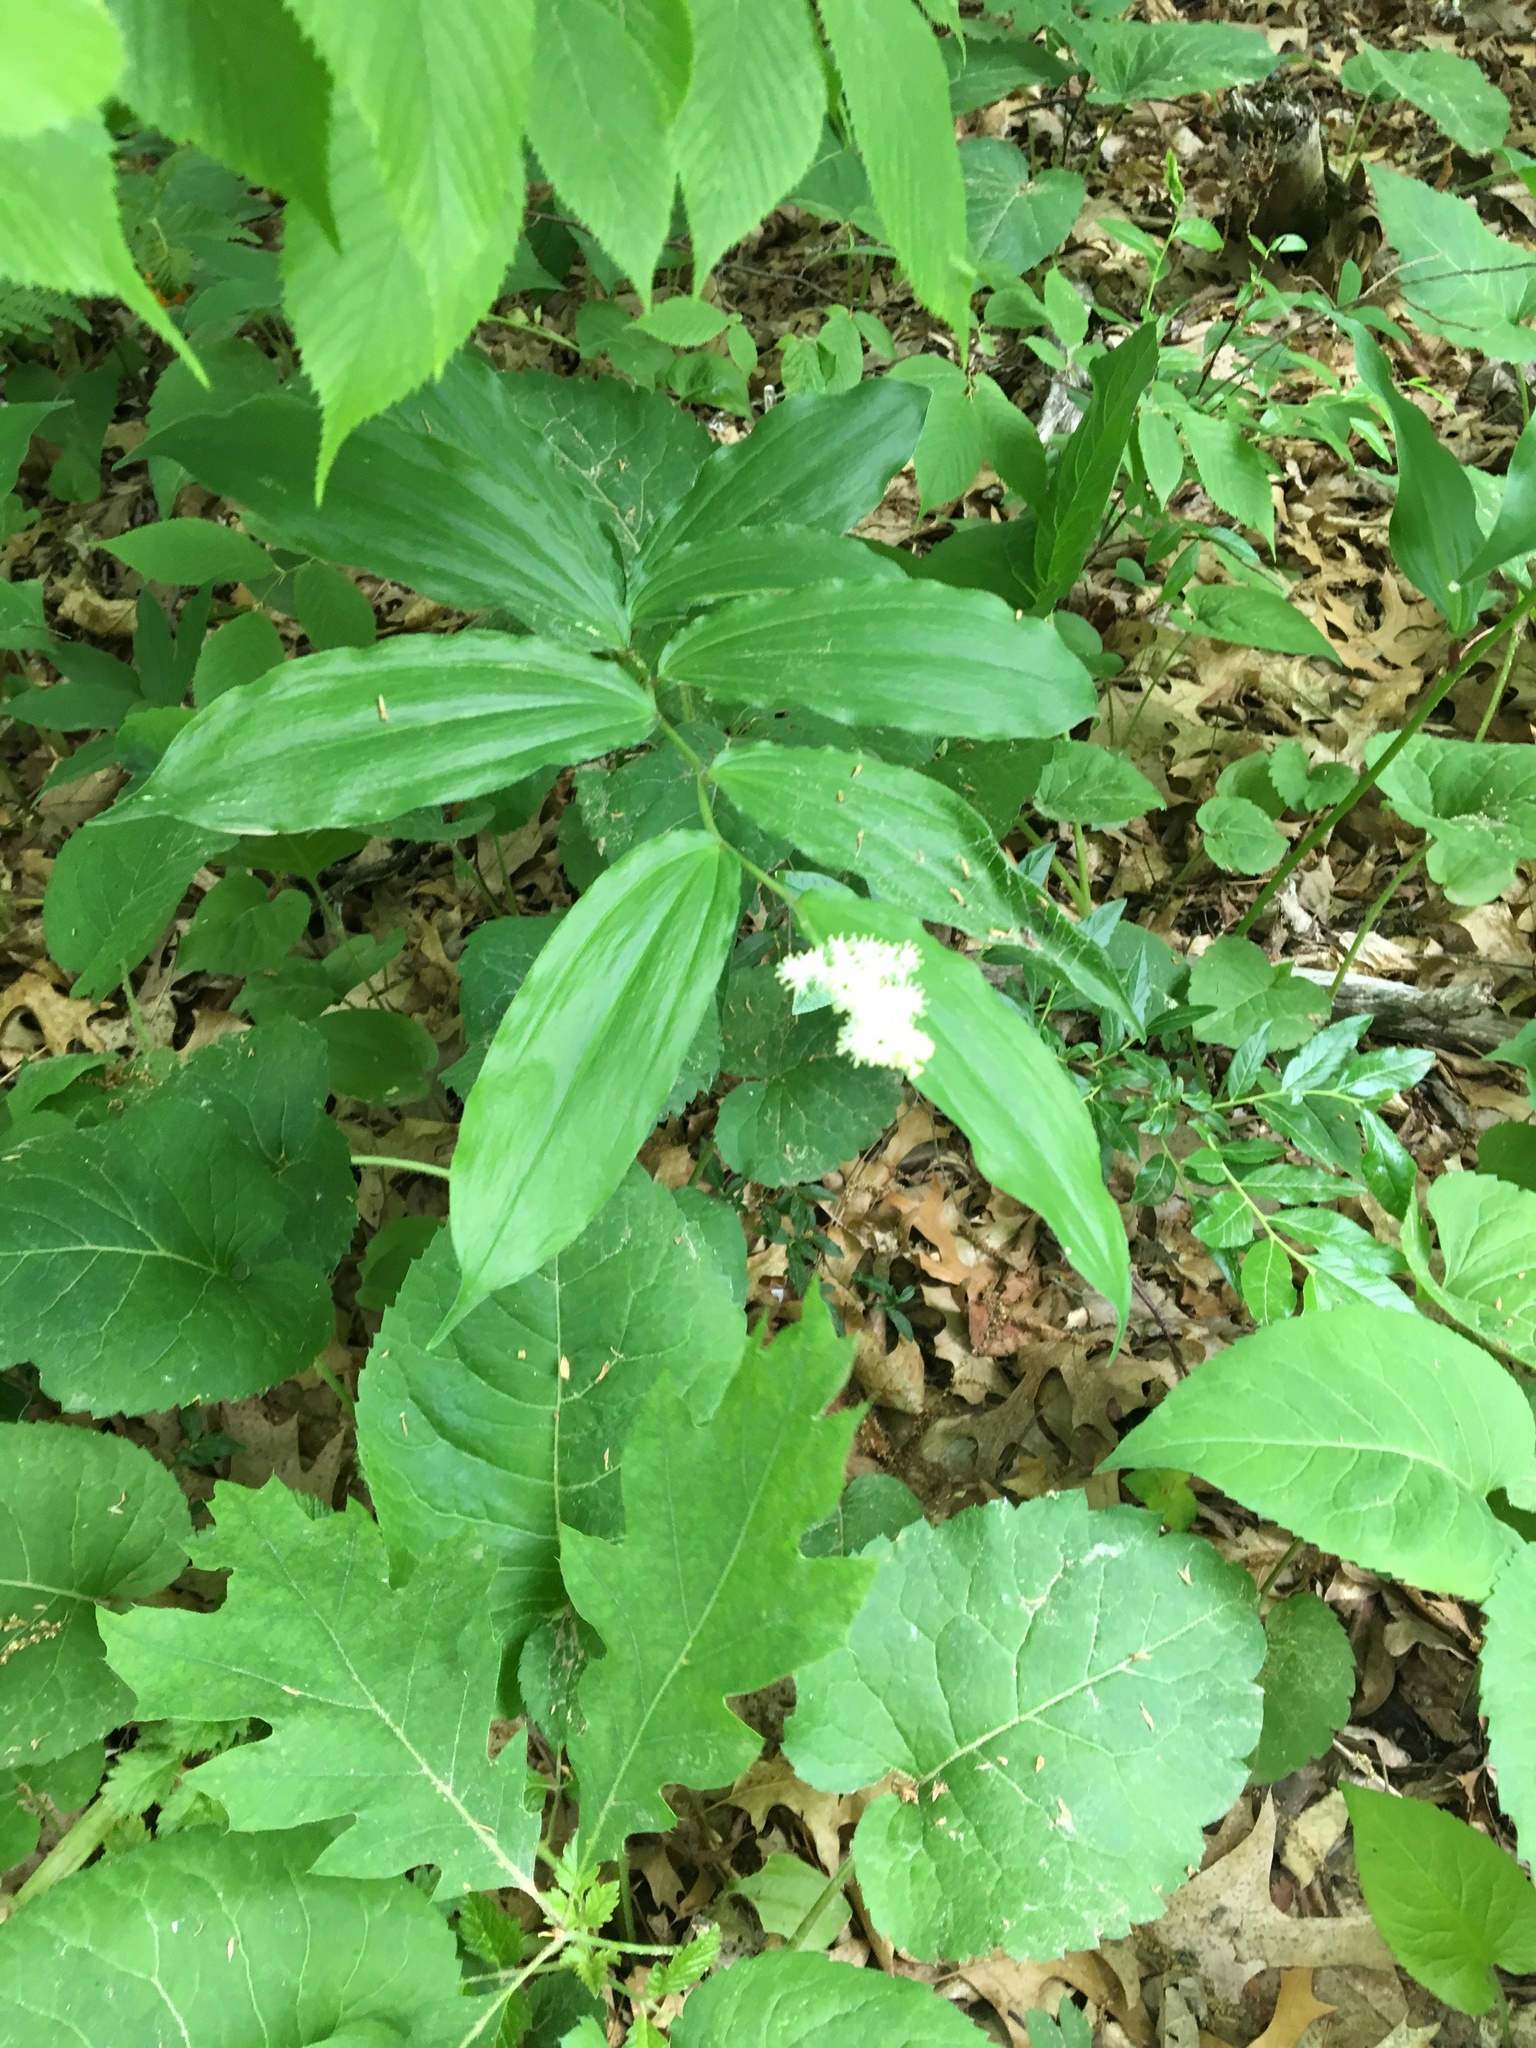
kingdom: Plantae
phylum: Tracheophyta
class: Liliopsida
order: Asparagales
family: Asparagaceae
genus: Maianthemum
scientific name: Maianthemum racemosum
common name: False spikenard
